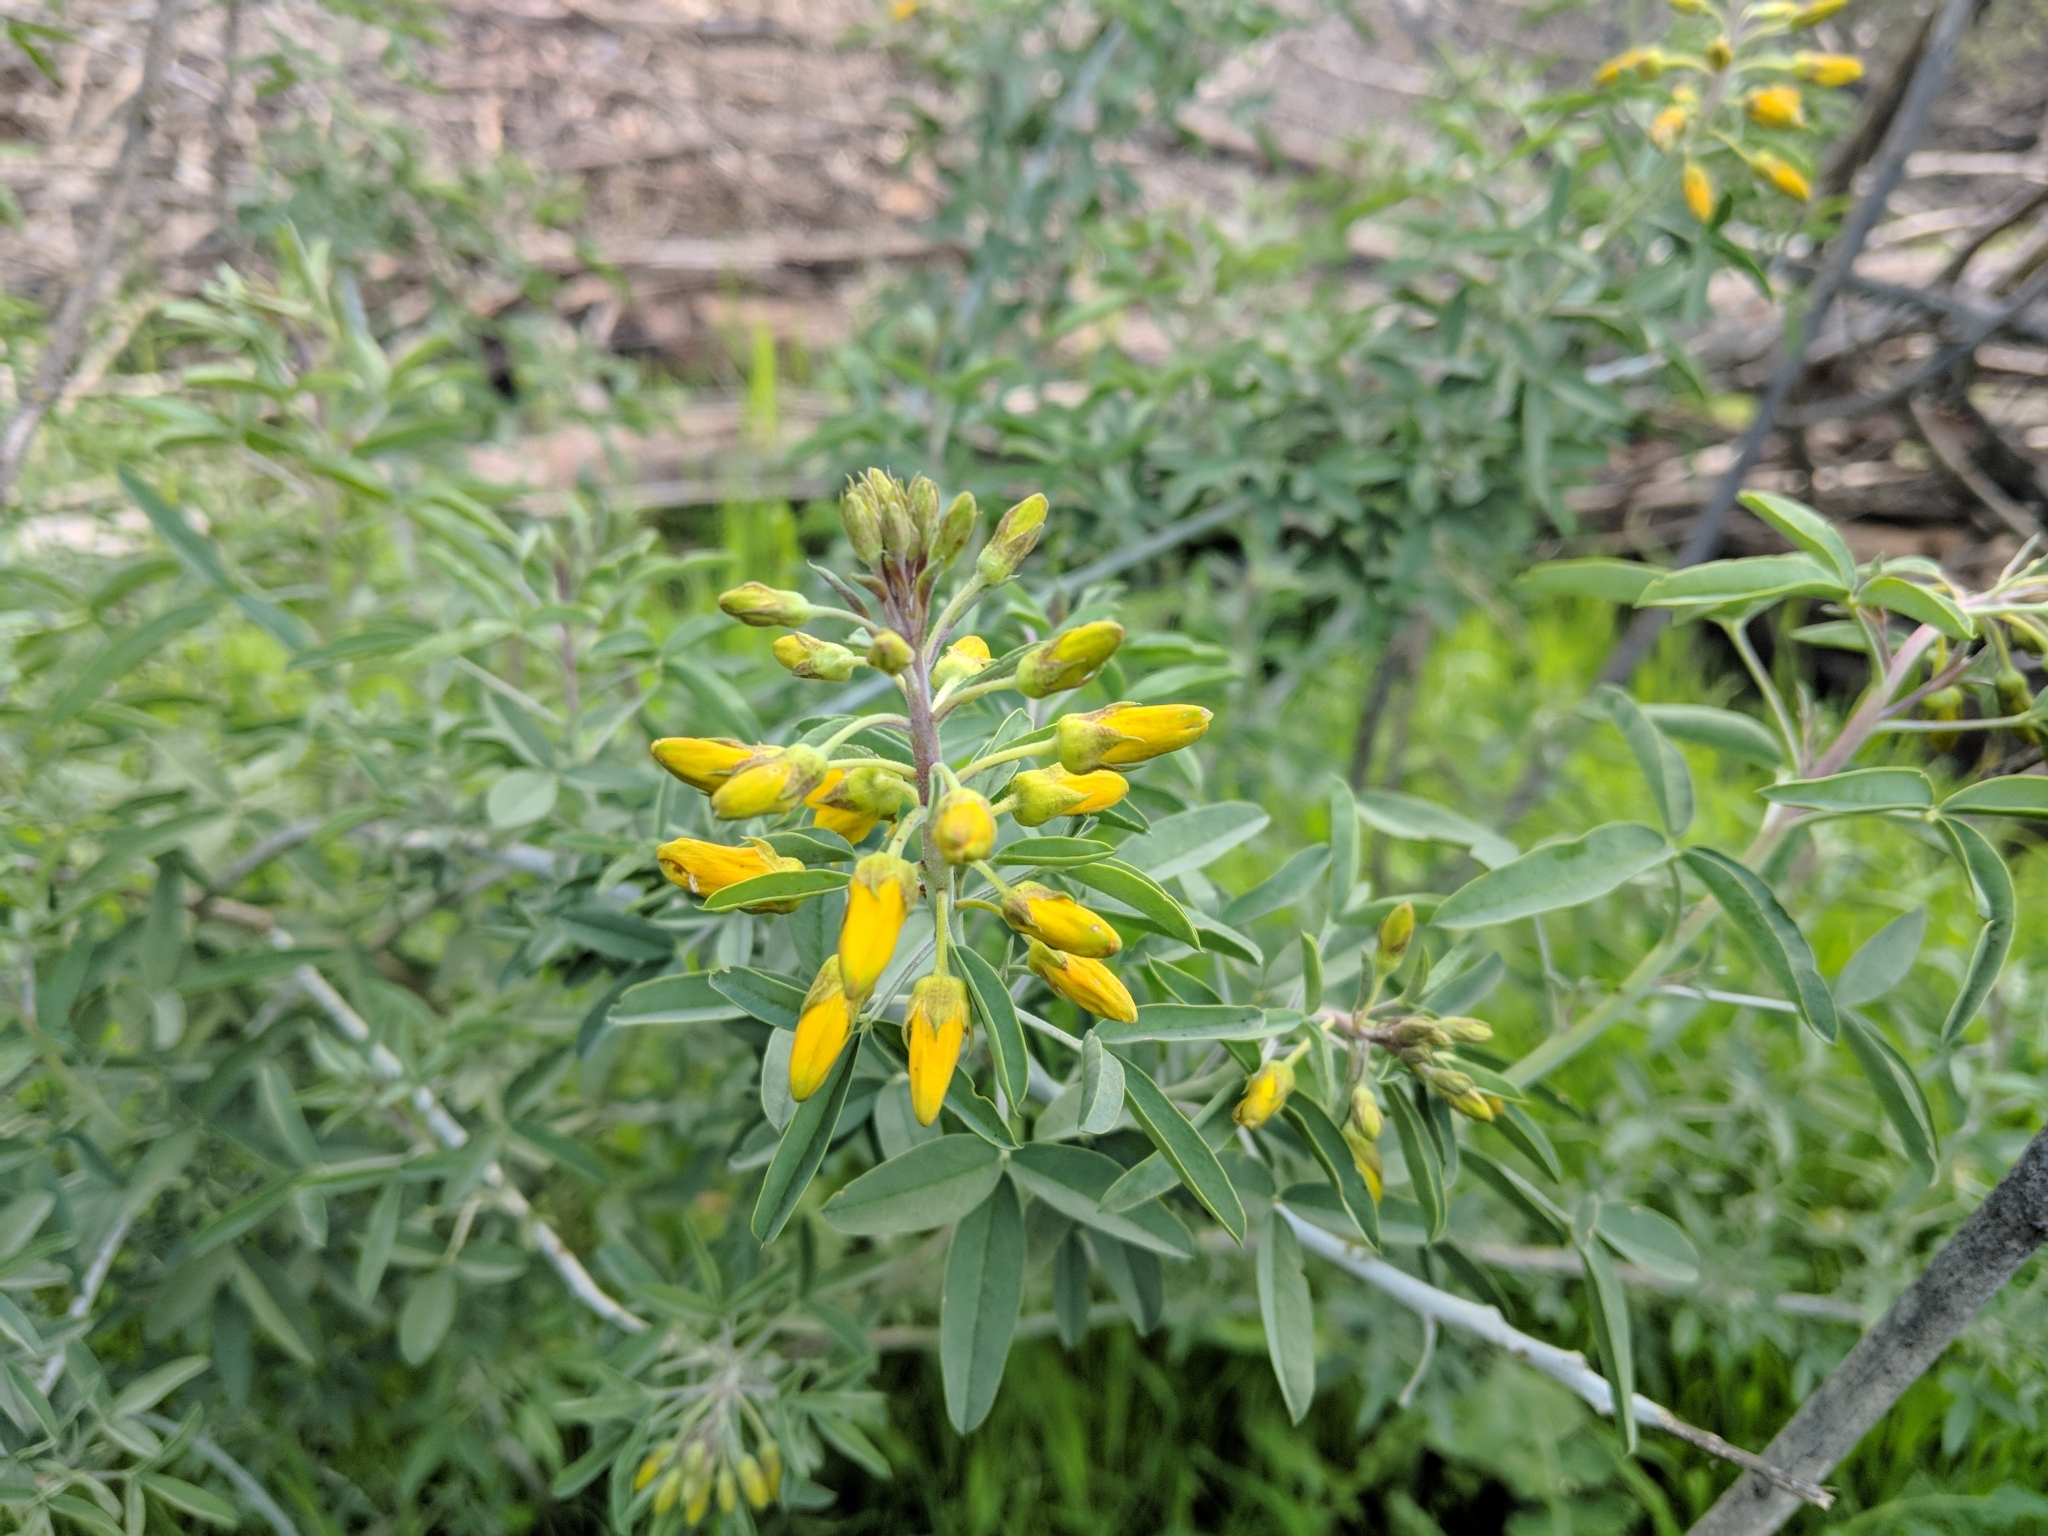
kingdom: Plantae
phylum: Tracheophyta
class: Magnoliopsida
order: Brassicales
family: Cleomaceae
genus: Cleomella
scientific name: Cleomella arborea
